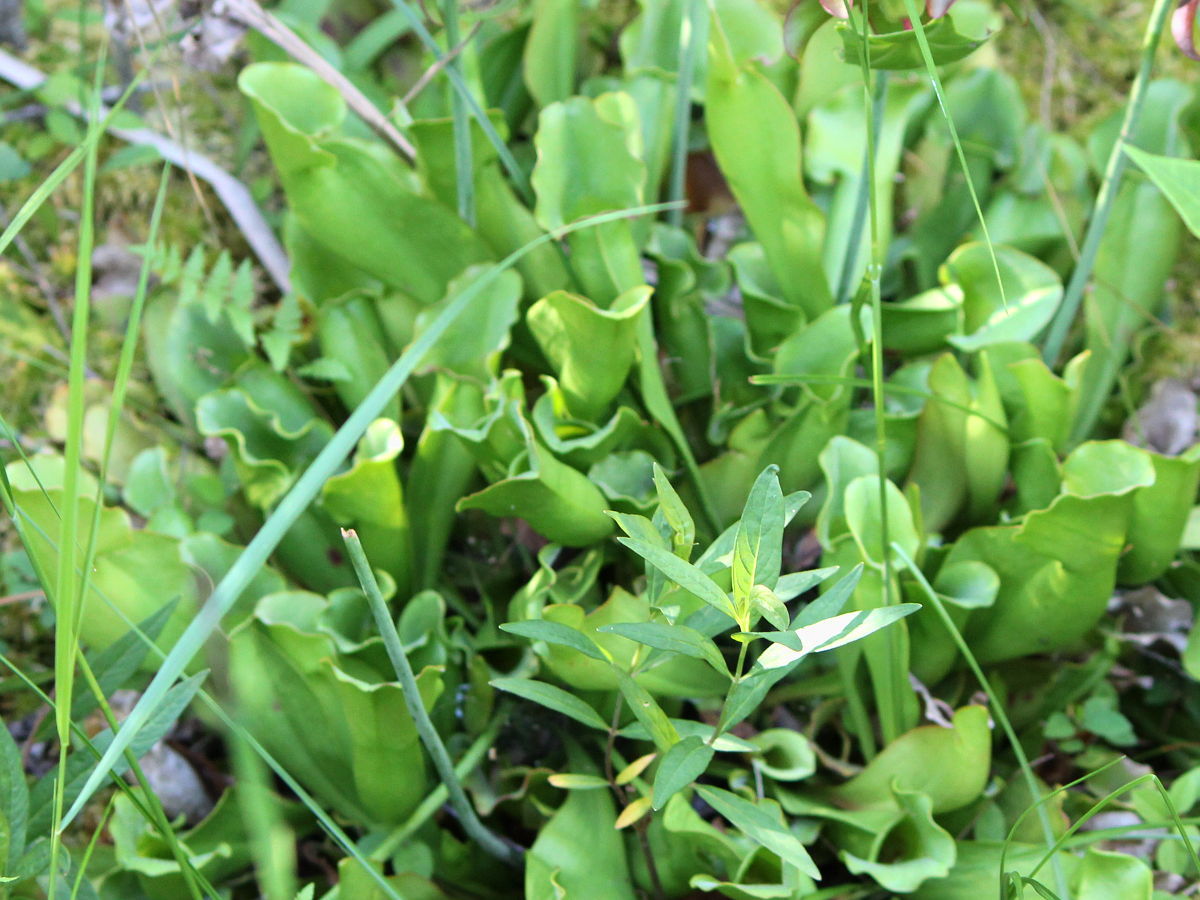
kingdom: Plantae
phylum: Tracheophyta
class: Magnoliopsida
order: Ericales
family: Sarraceniaceae
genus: Sarracenia
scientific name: Sarracenia purpurea
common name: Pitcherplant
